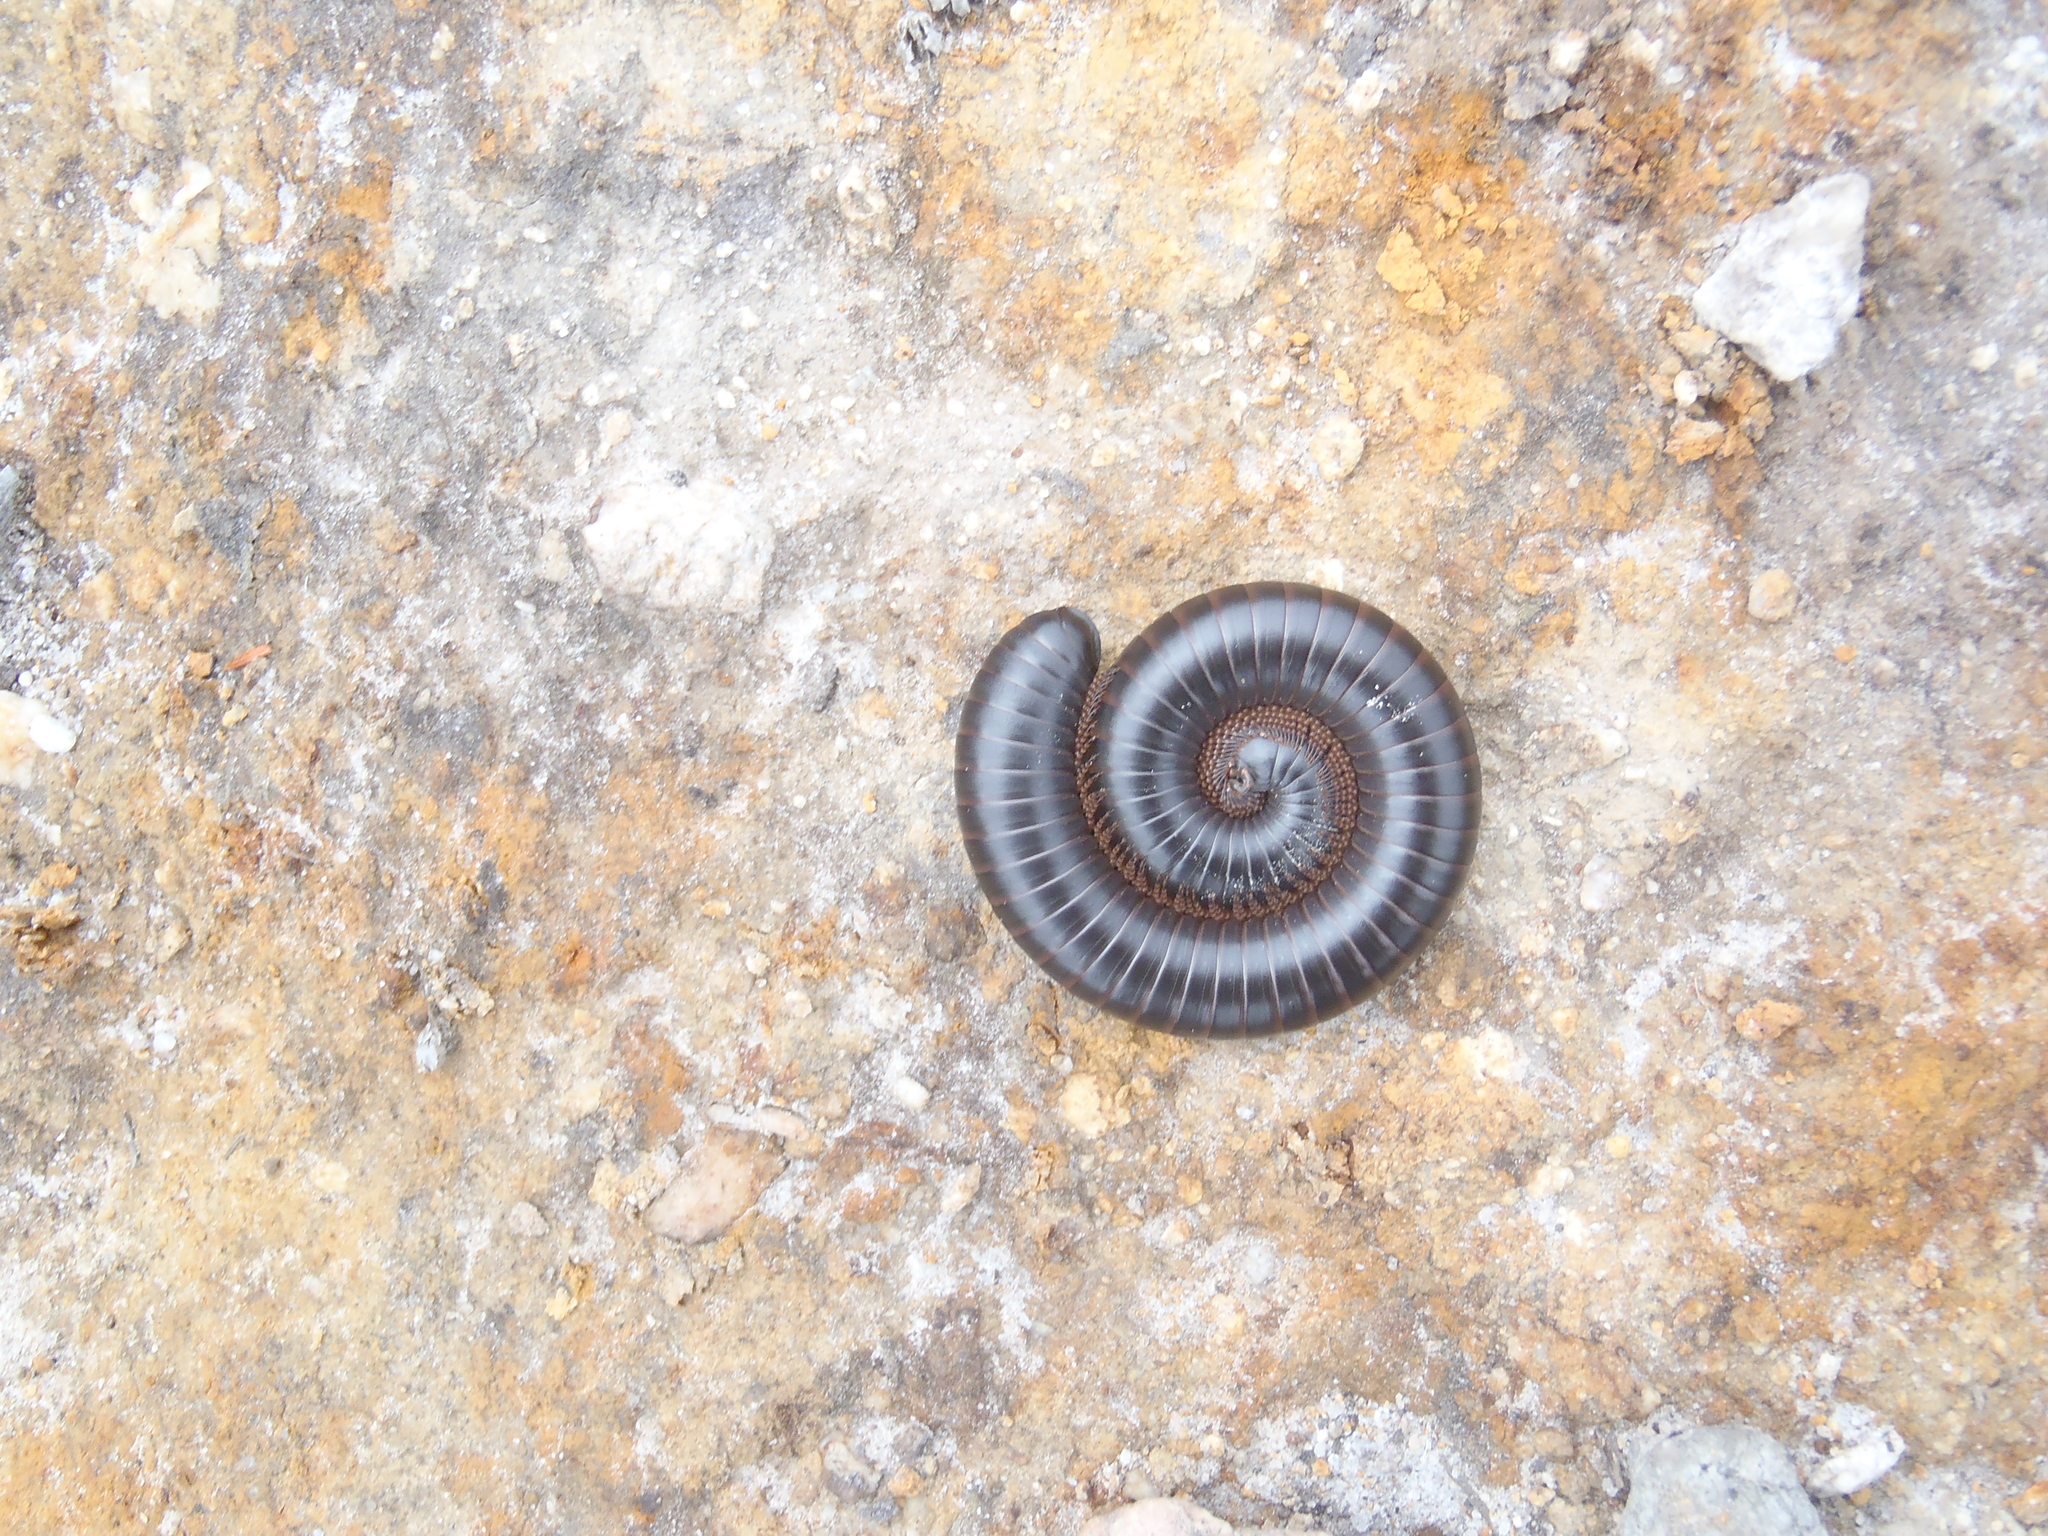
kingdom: Animalia
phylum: Arthropoda
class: Diplopoda
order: Spirostreptida
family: Spirostreptidae
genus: Doratogonus
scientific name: Doratogonus annulipes
